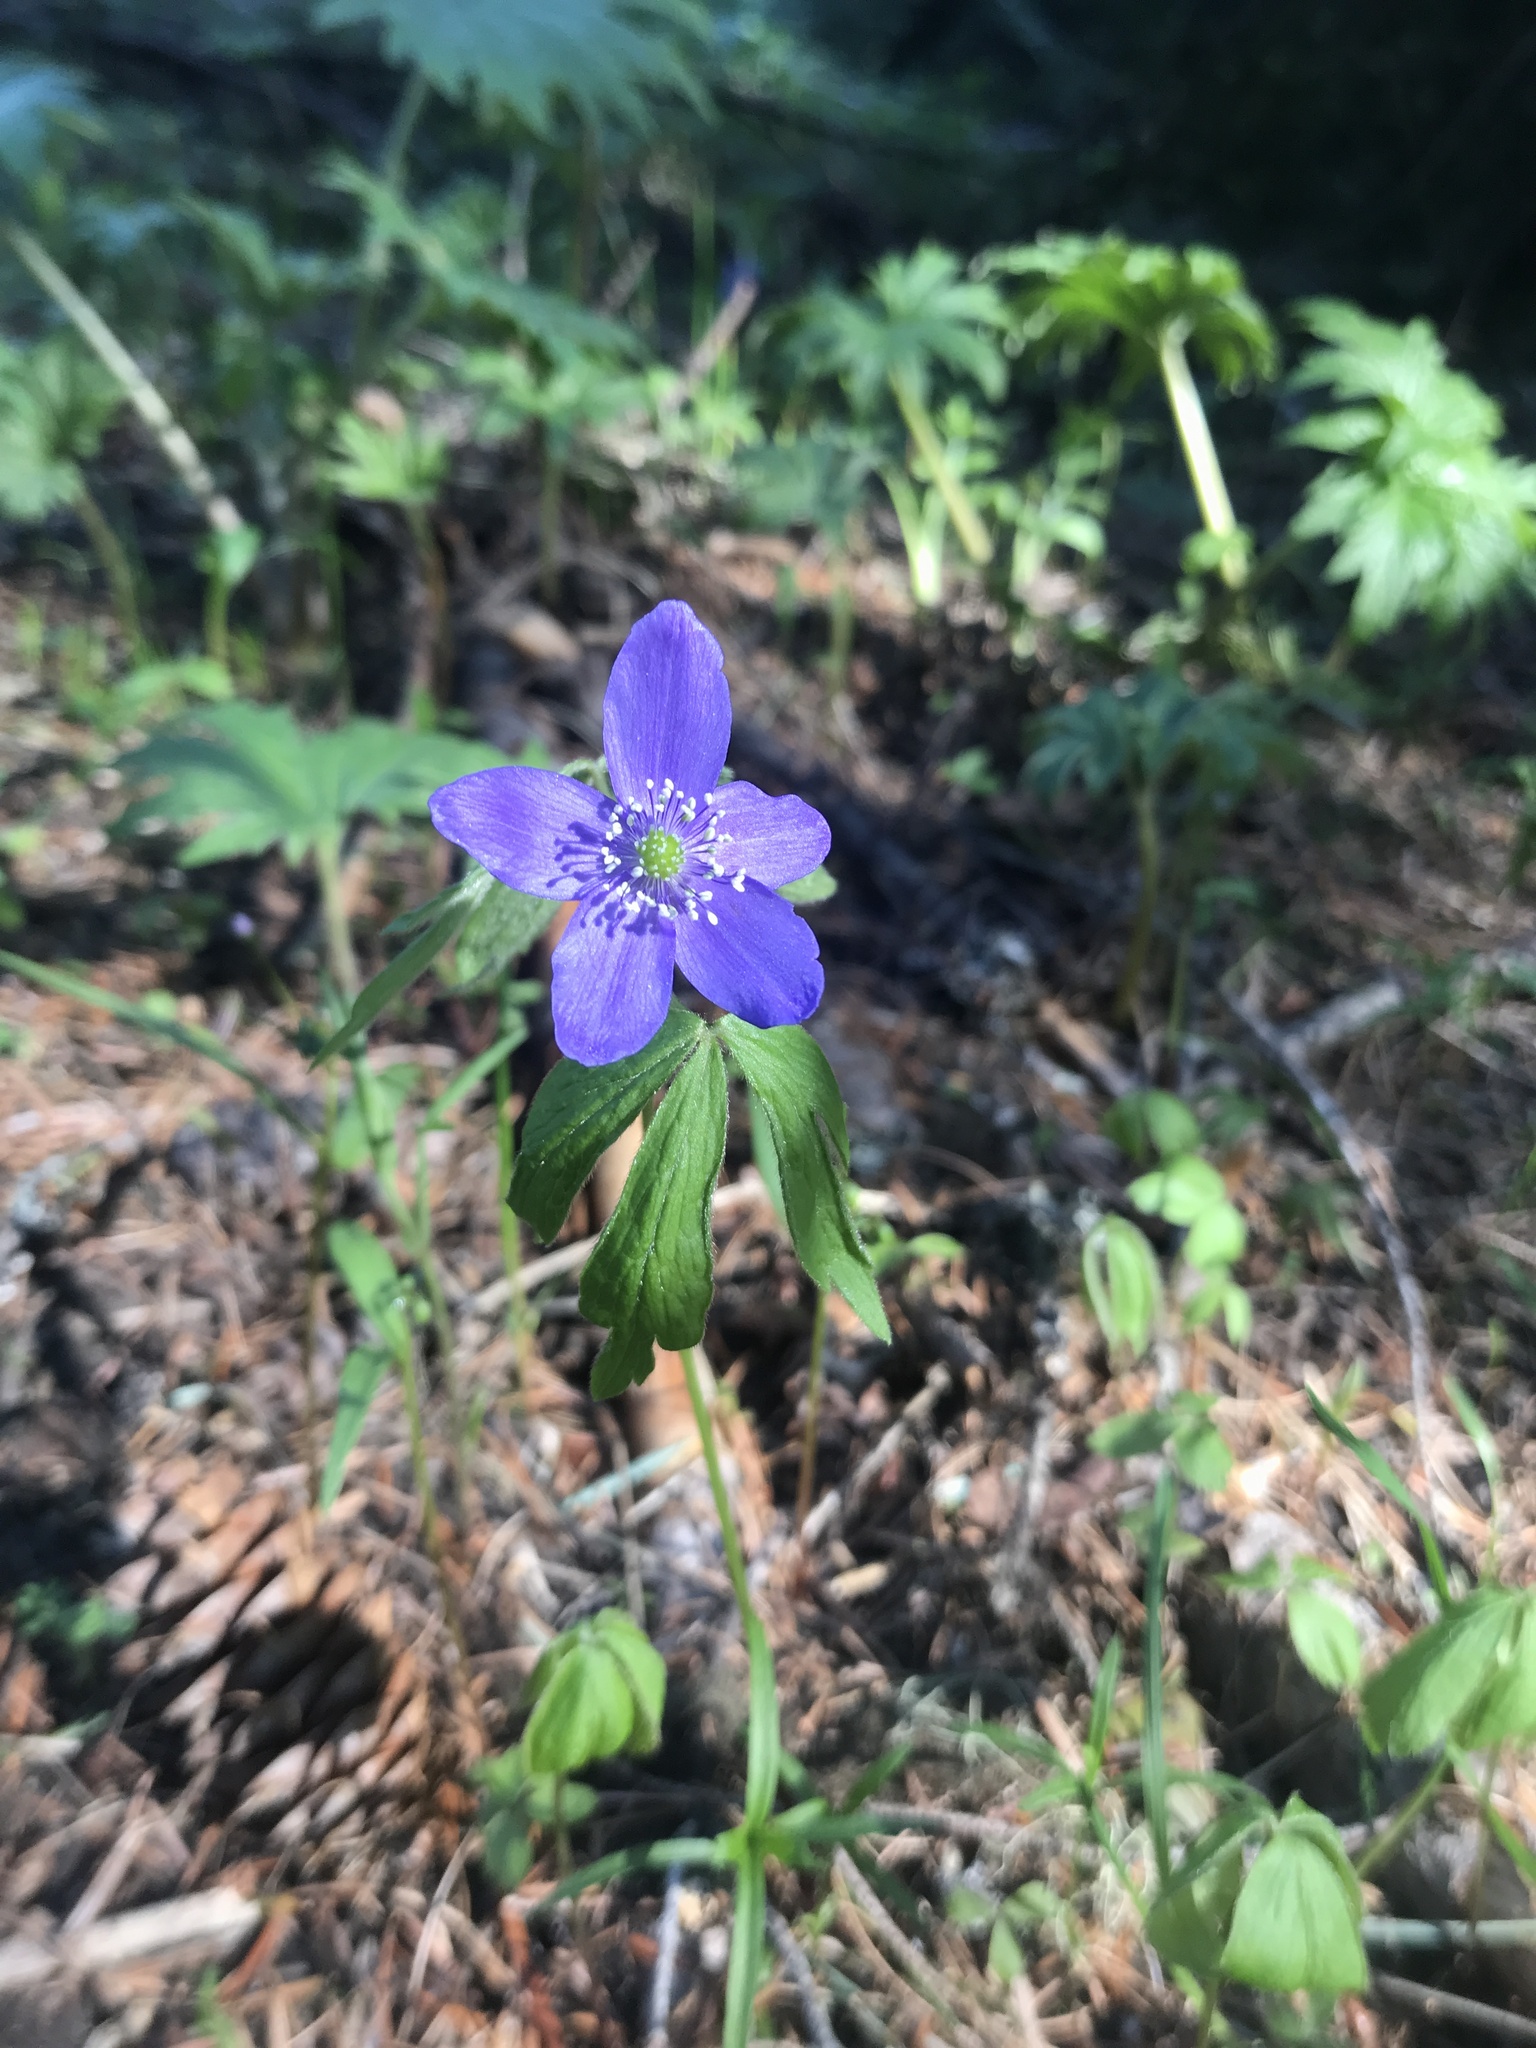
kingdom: Plantae
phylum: Tracheophyta
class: Magnoliopsida
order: Ranunculales
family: Ranunculaceae
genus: Anemone
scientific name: Anemone oregana
